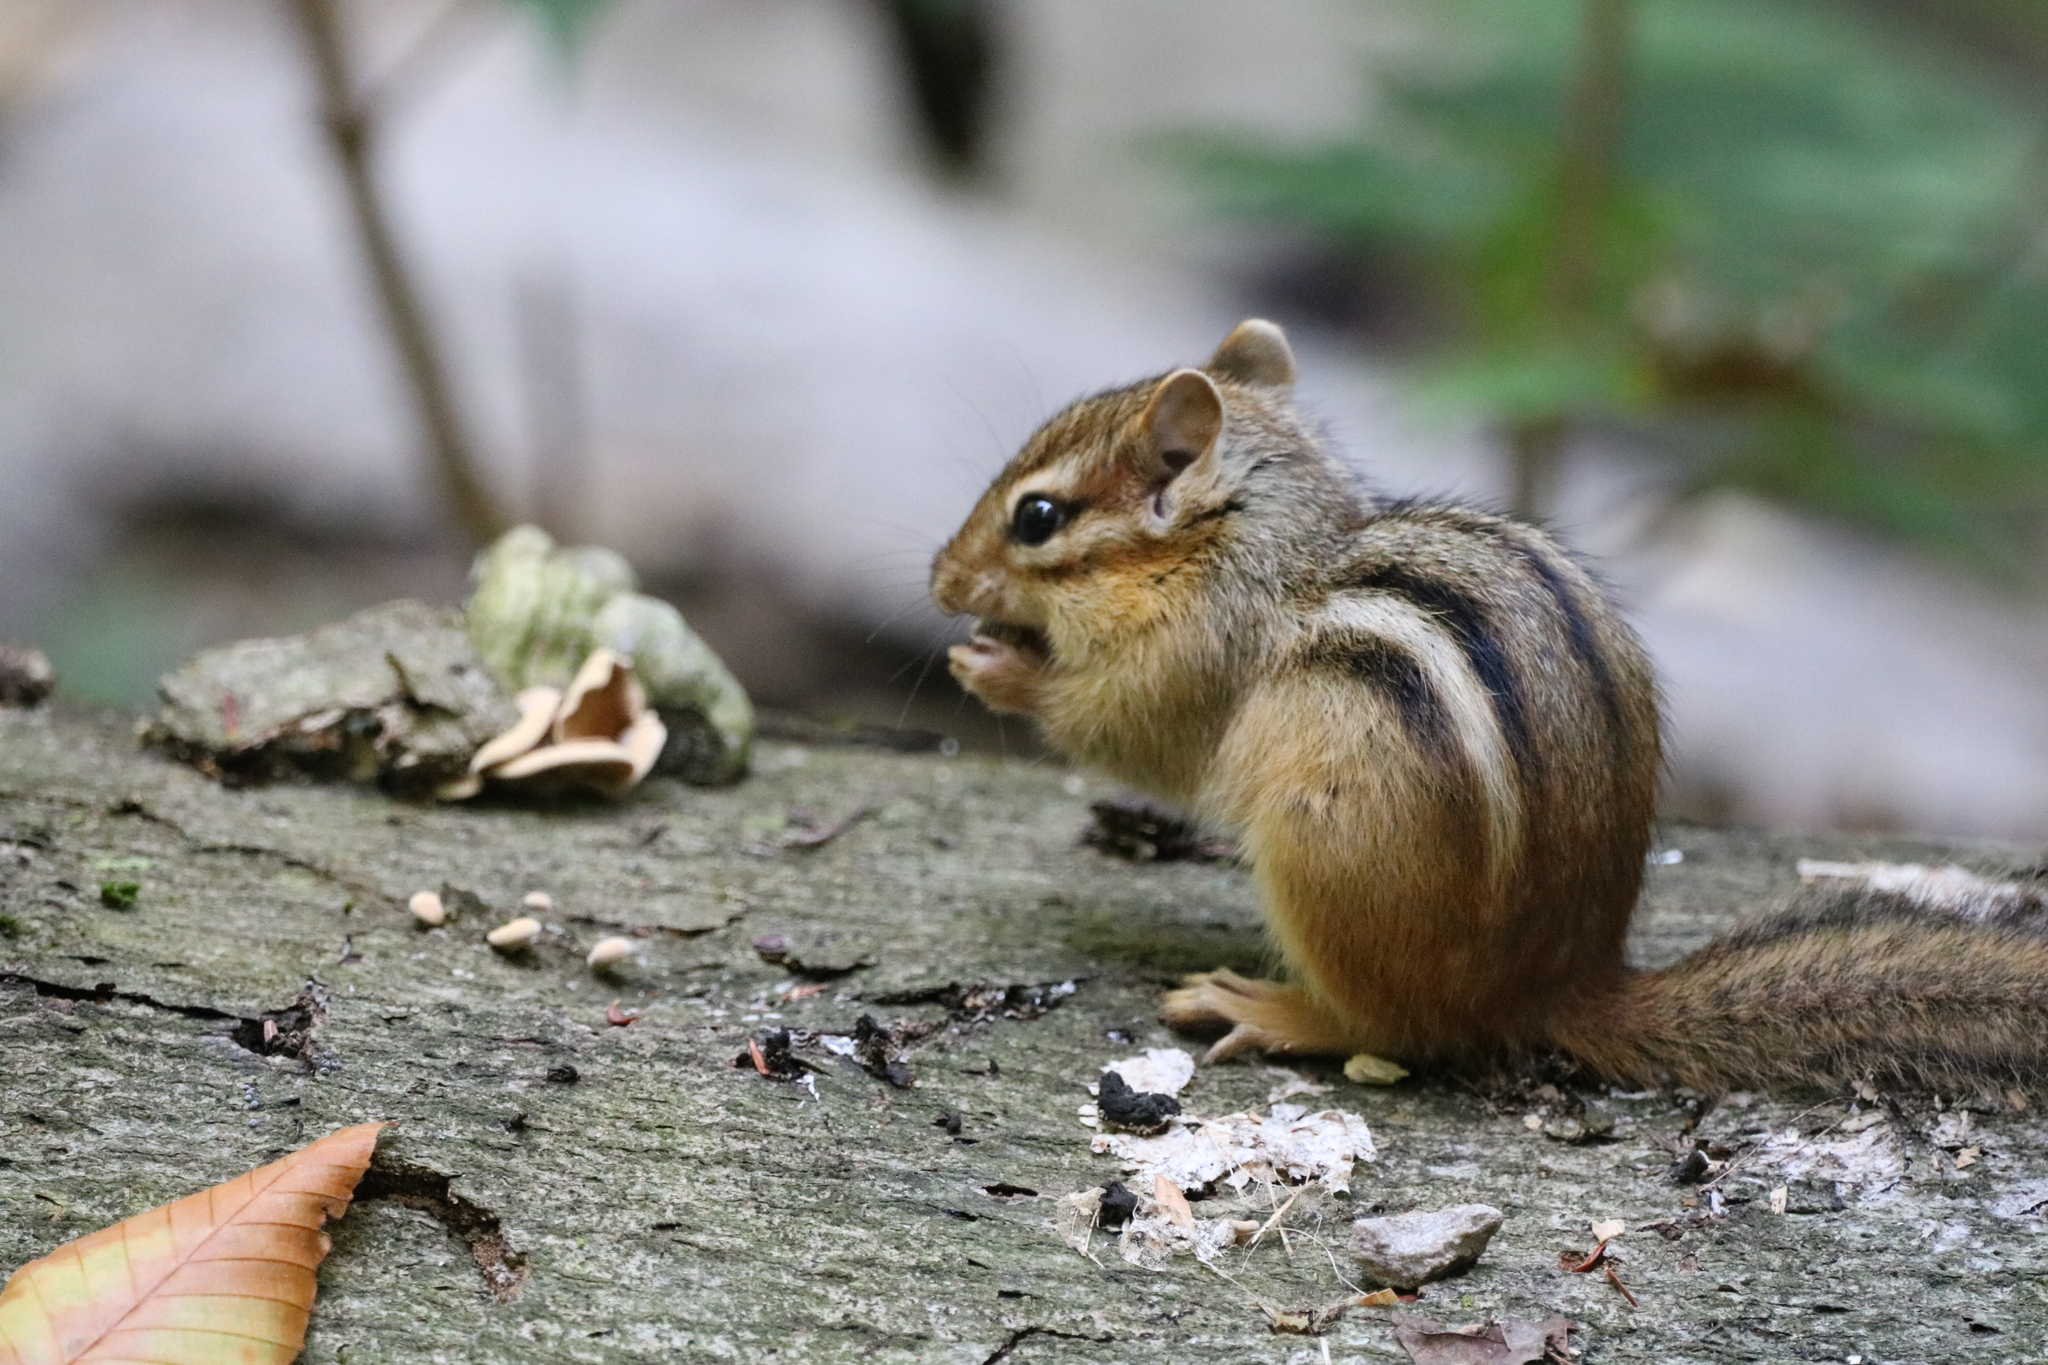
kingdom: Animalia
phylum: Chordata
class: Mammalia
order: Rodentia
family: Sciuridae
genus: Tamias
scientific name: Tamias striatus
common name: Eastern chipmunk
